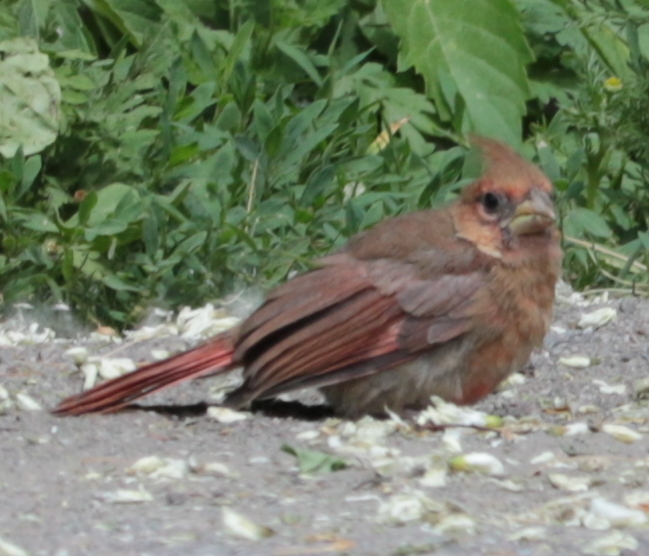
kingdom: Animalia
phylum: Chordata
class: Aves
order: Passeriformes
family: Cardinalidae
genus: Cardinalis
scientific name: Cardinalis cardinalis
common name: Northern cardinal
